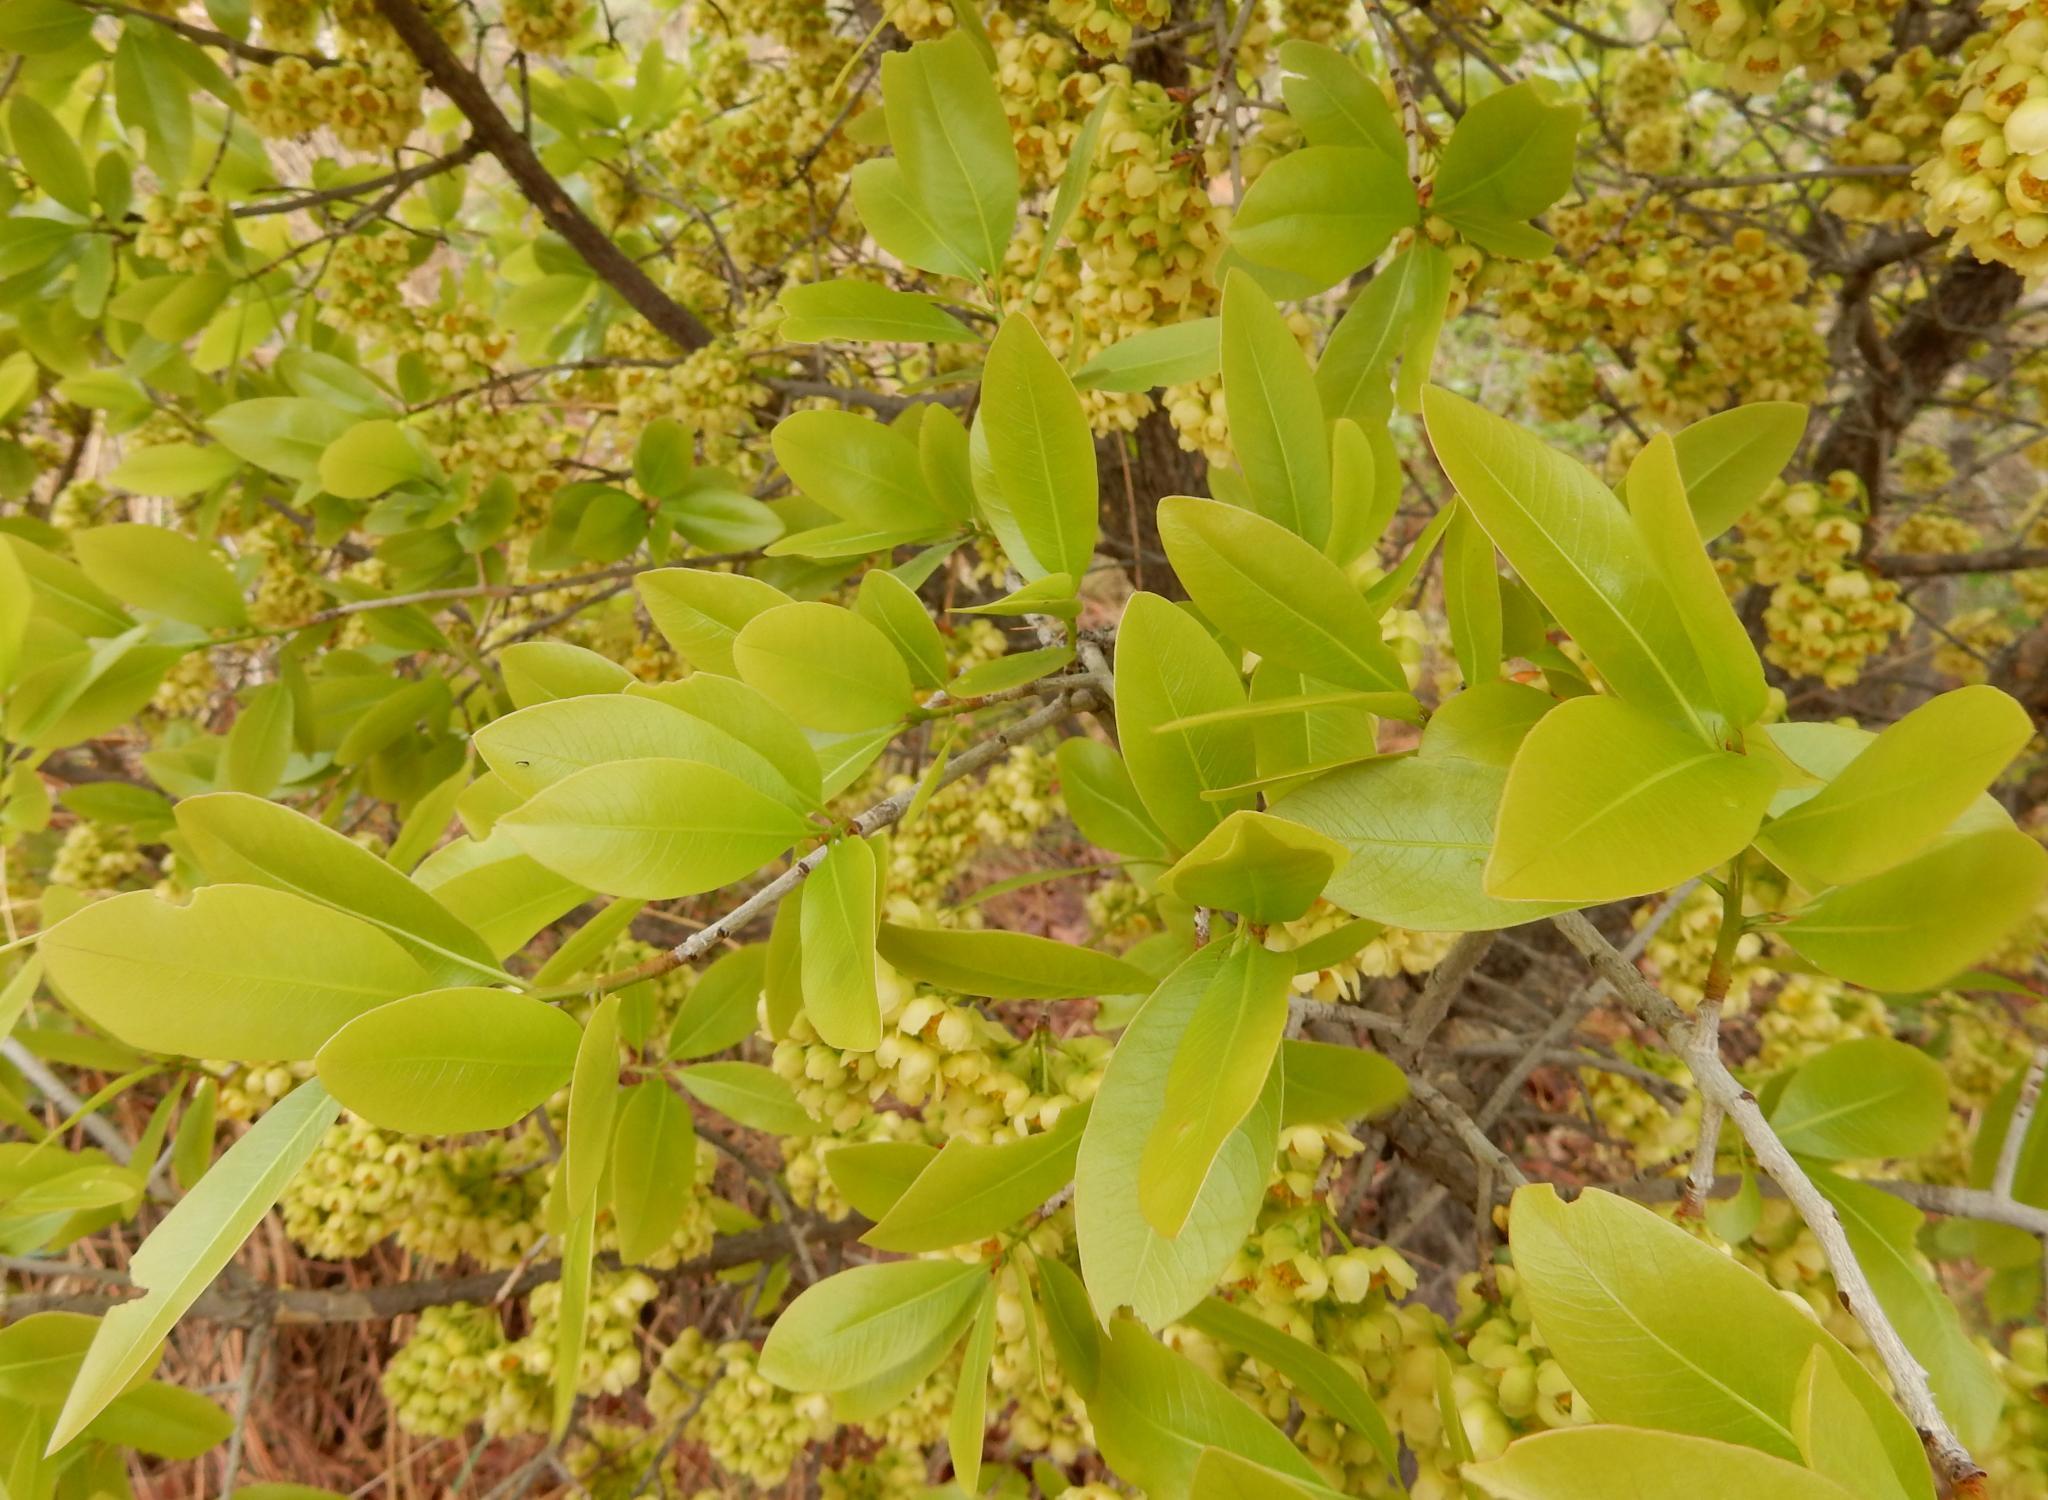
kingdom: Plantae
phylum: Tracheophyta
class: Magnoliopsida
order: Malpighiales
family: Ochnaceae
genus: Ochna
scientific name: Ochna pulchra
